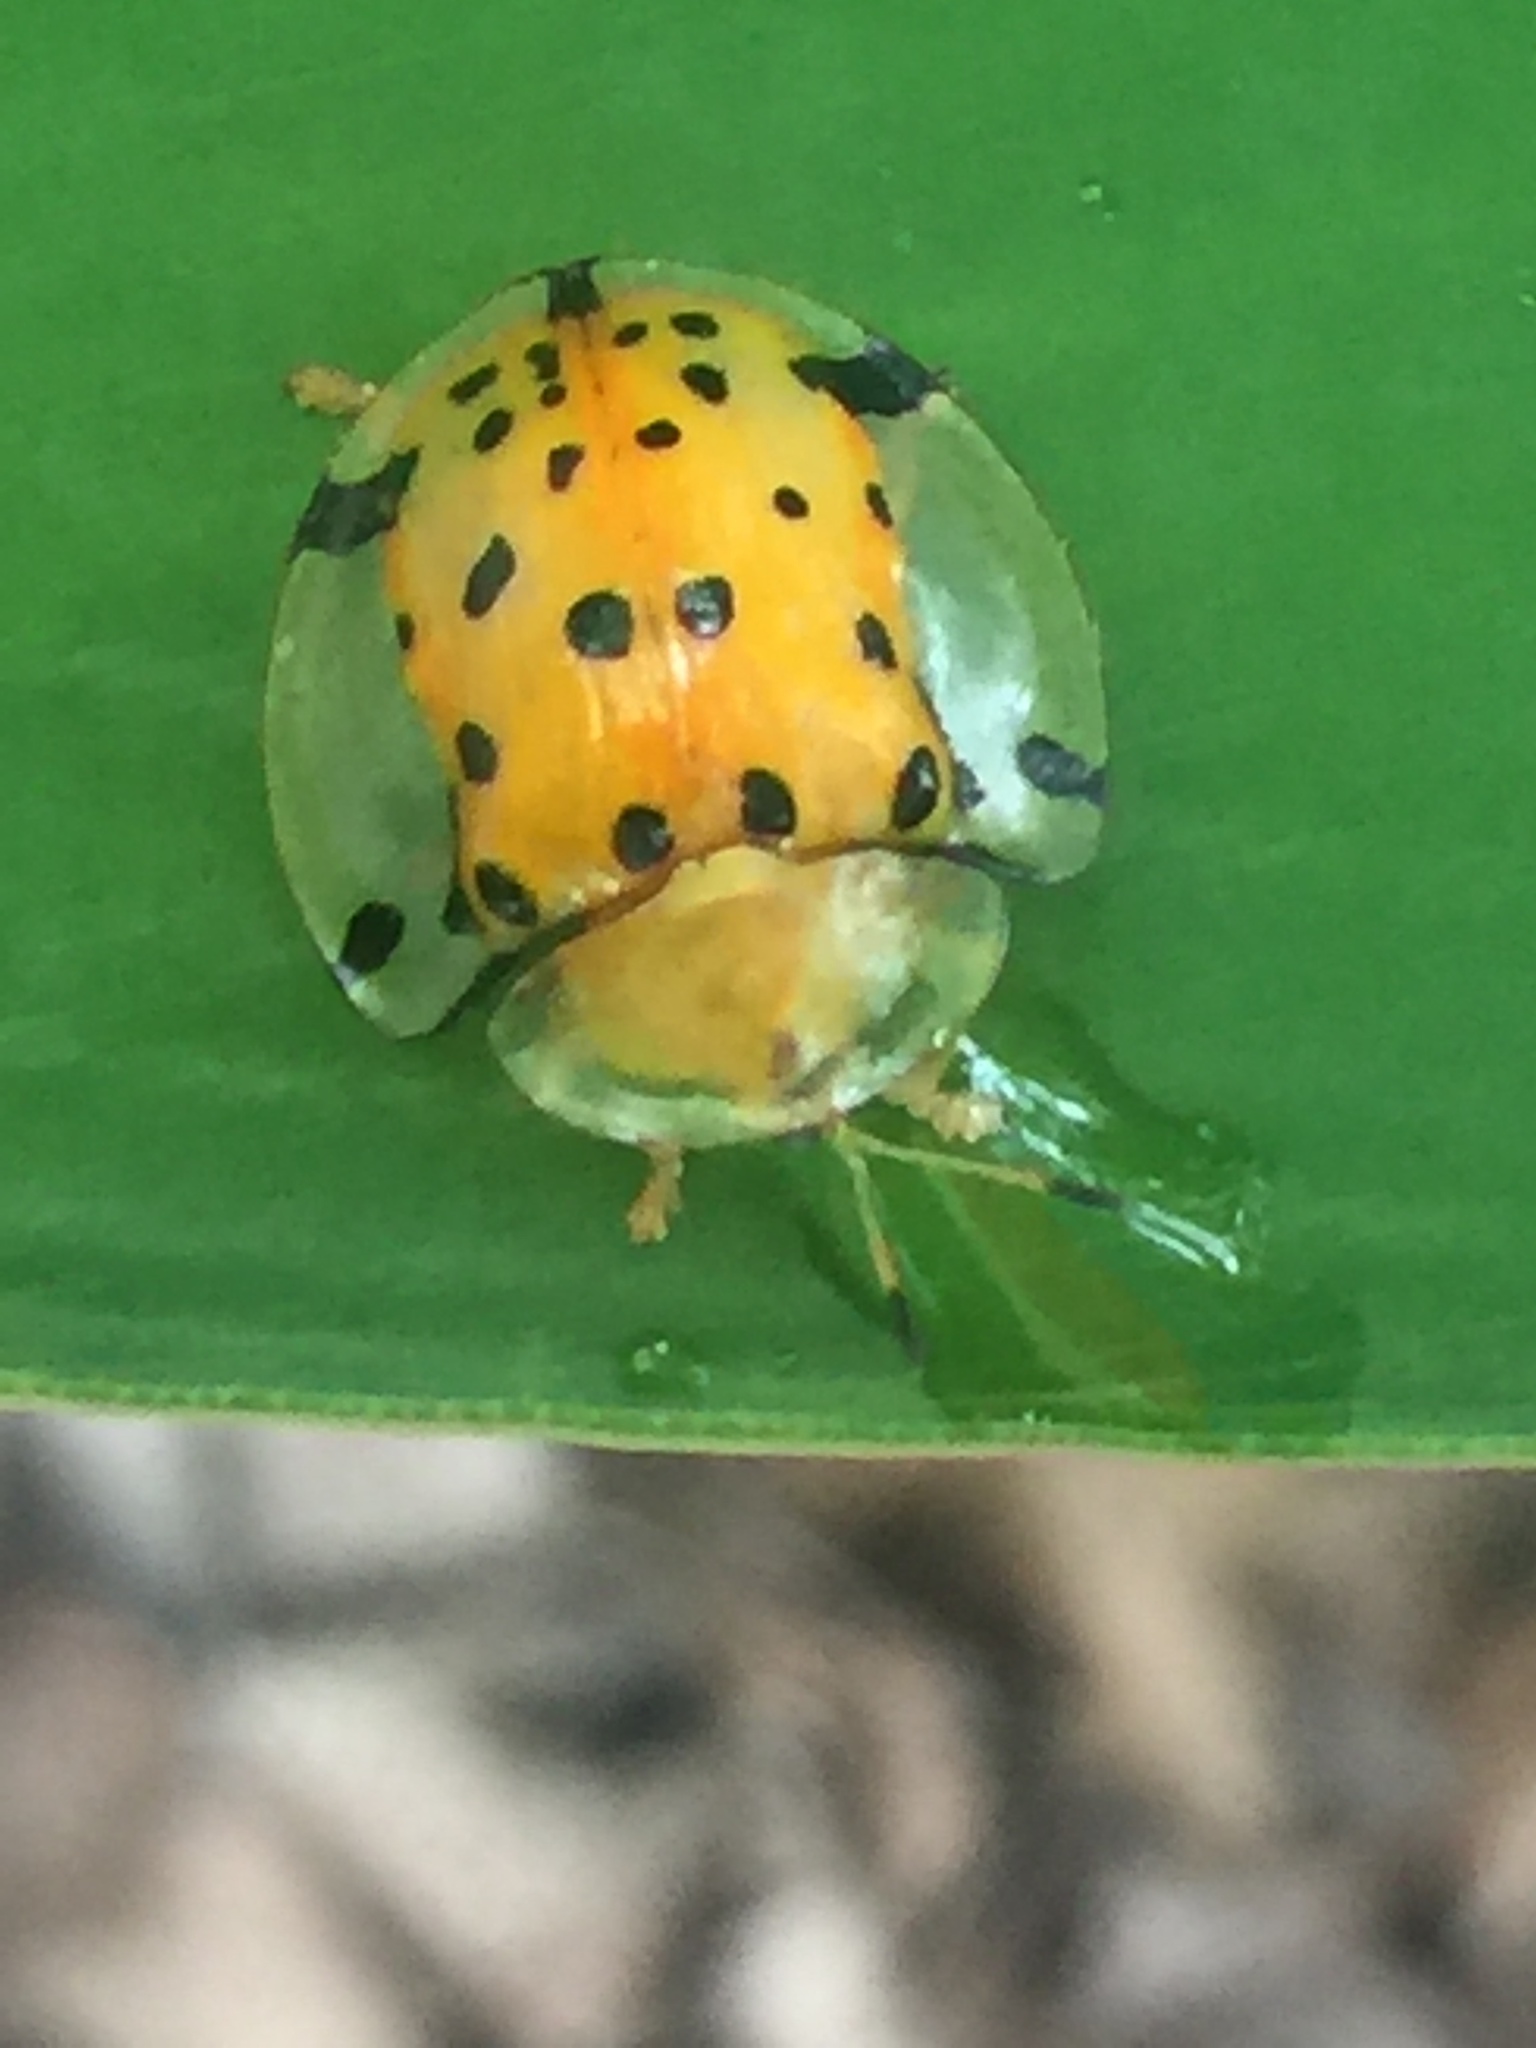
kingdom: Animalia
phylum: Arthropoda
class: Insecta
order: Coleoptera
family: Chrysomelidae
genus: Aspidimorpha
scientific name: Aspidimorpha miliaris
